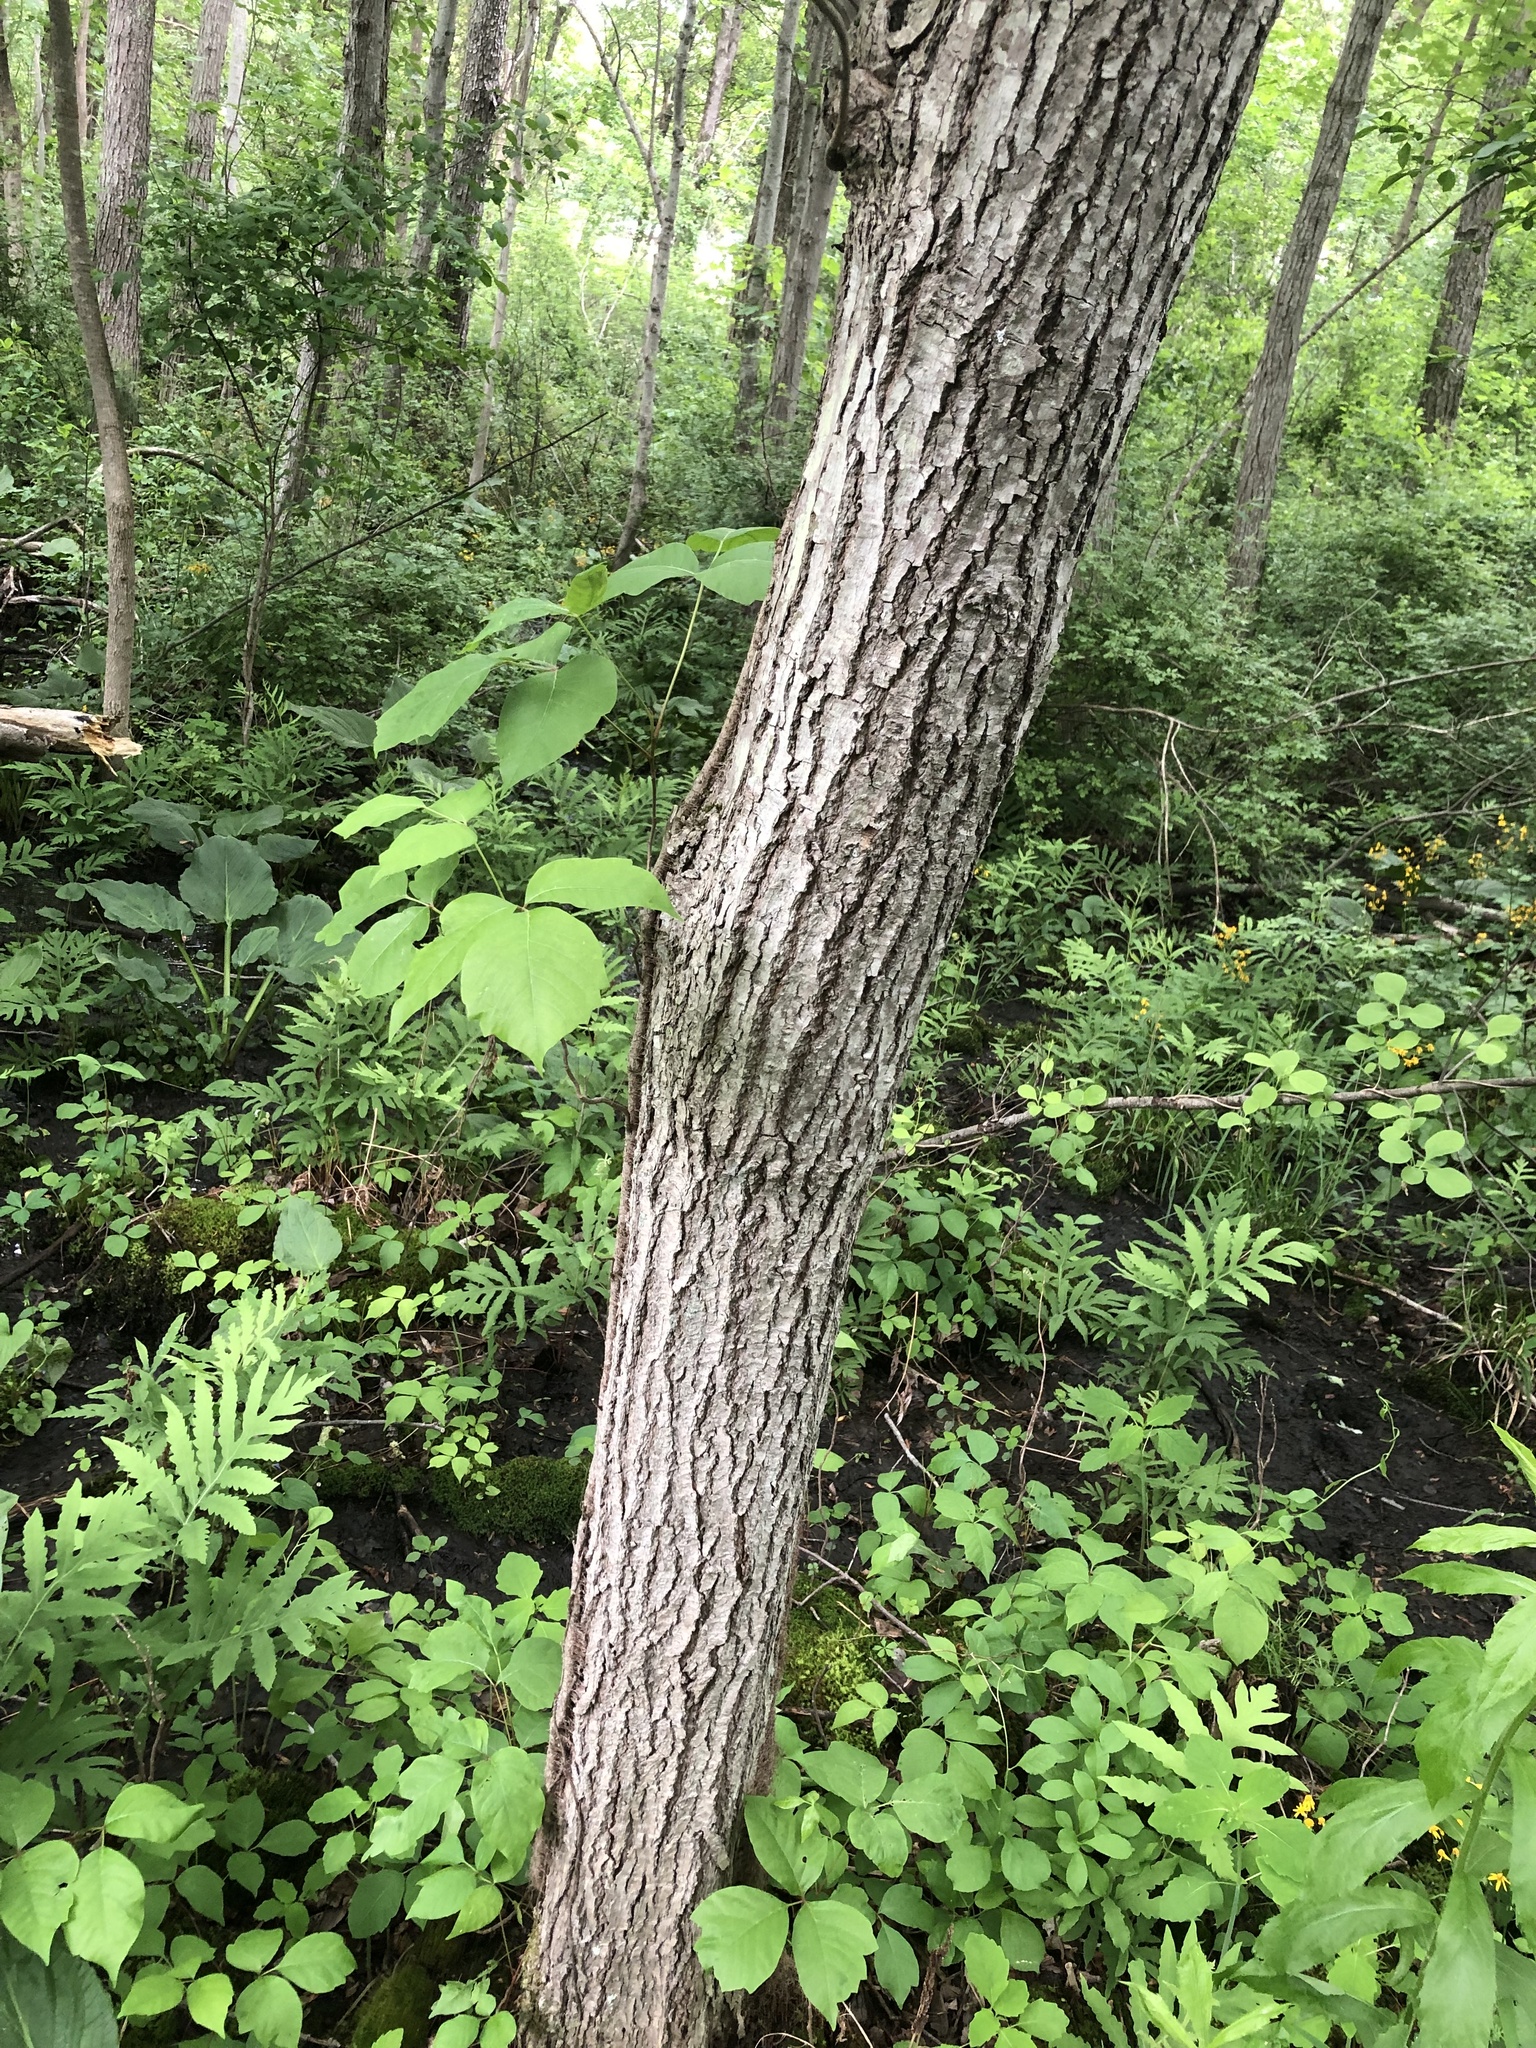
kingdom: Plantae
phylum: Tracheophyta
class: Magnoliopsida
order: Sapindales
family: Anacardiaceae
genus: Toxicodendron
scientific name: Toxicodendron radicans
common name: Poison ivy
